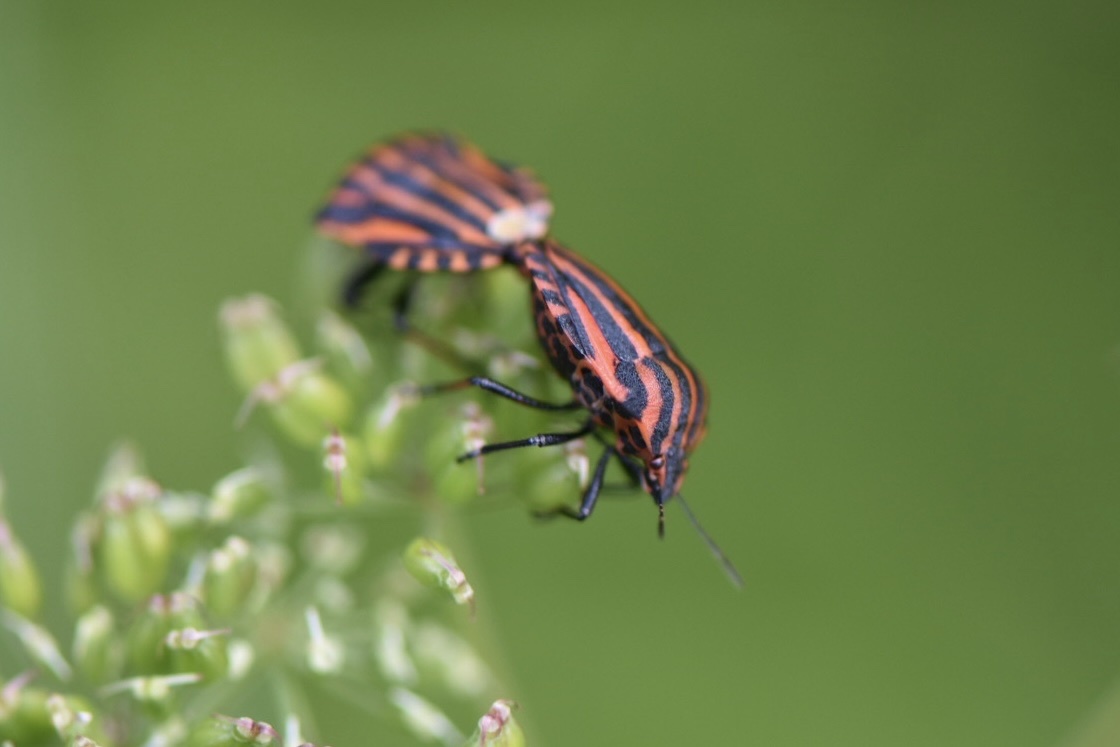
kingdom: Animalia
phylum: Arthropoda
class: Insecta
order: Hemiptera
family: Pentatomidae
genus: Graphosoma
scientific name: Graphosoma italicum
